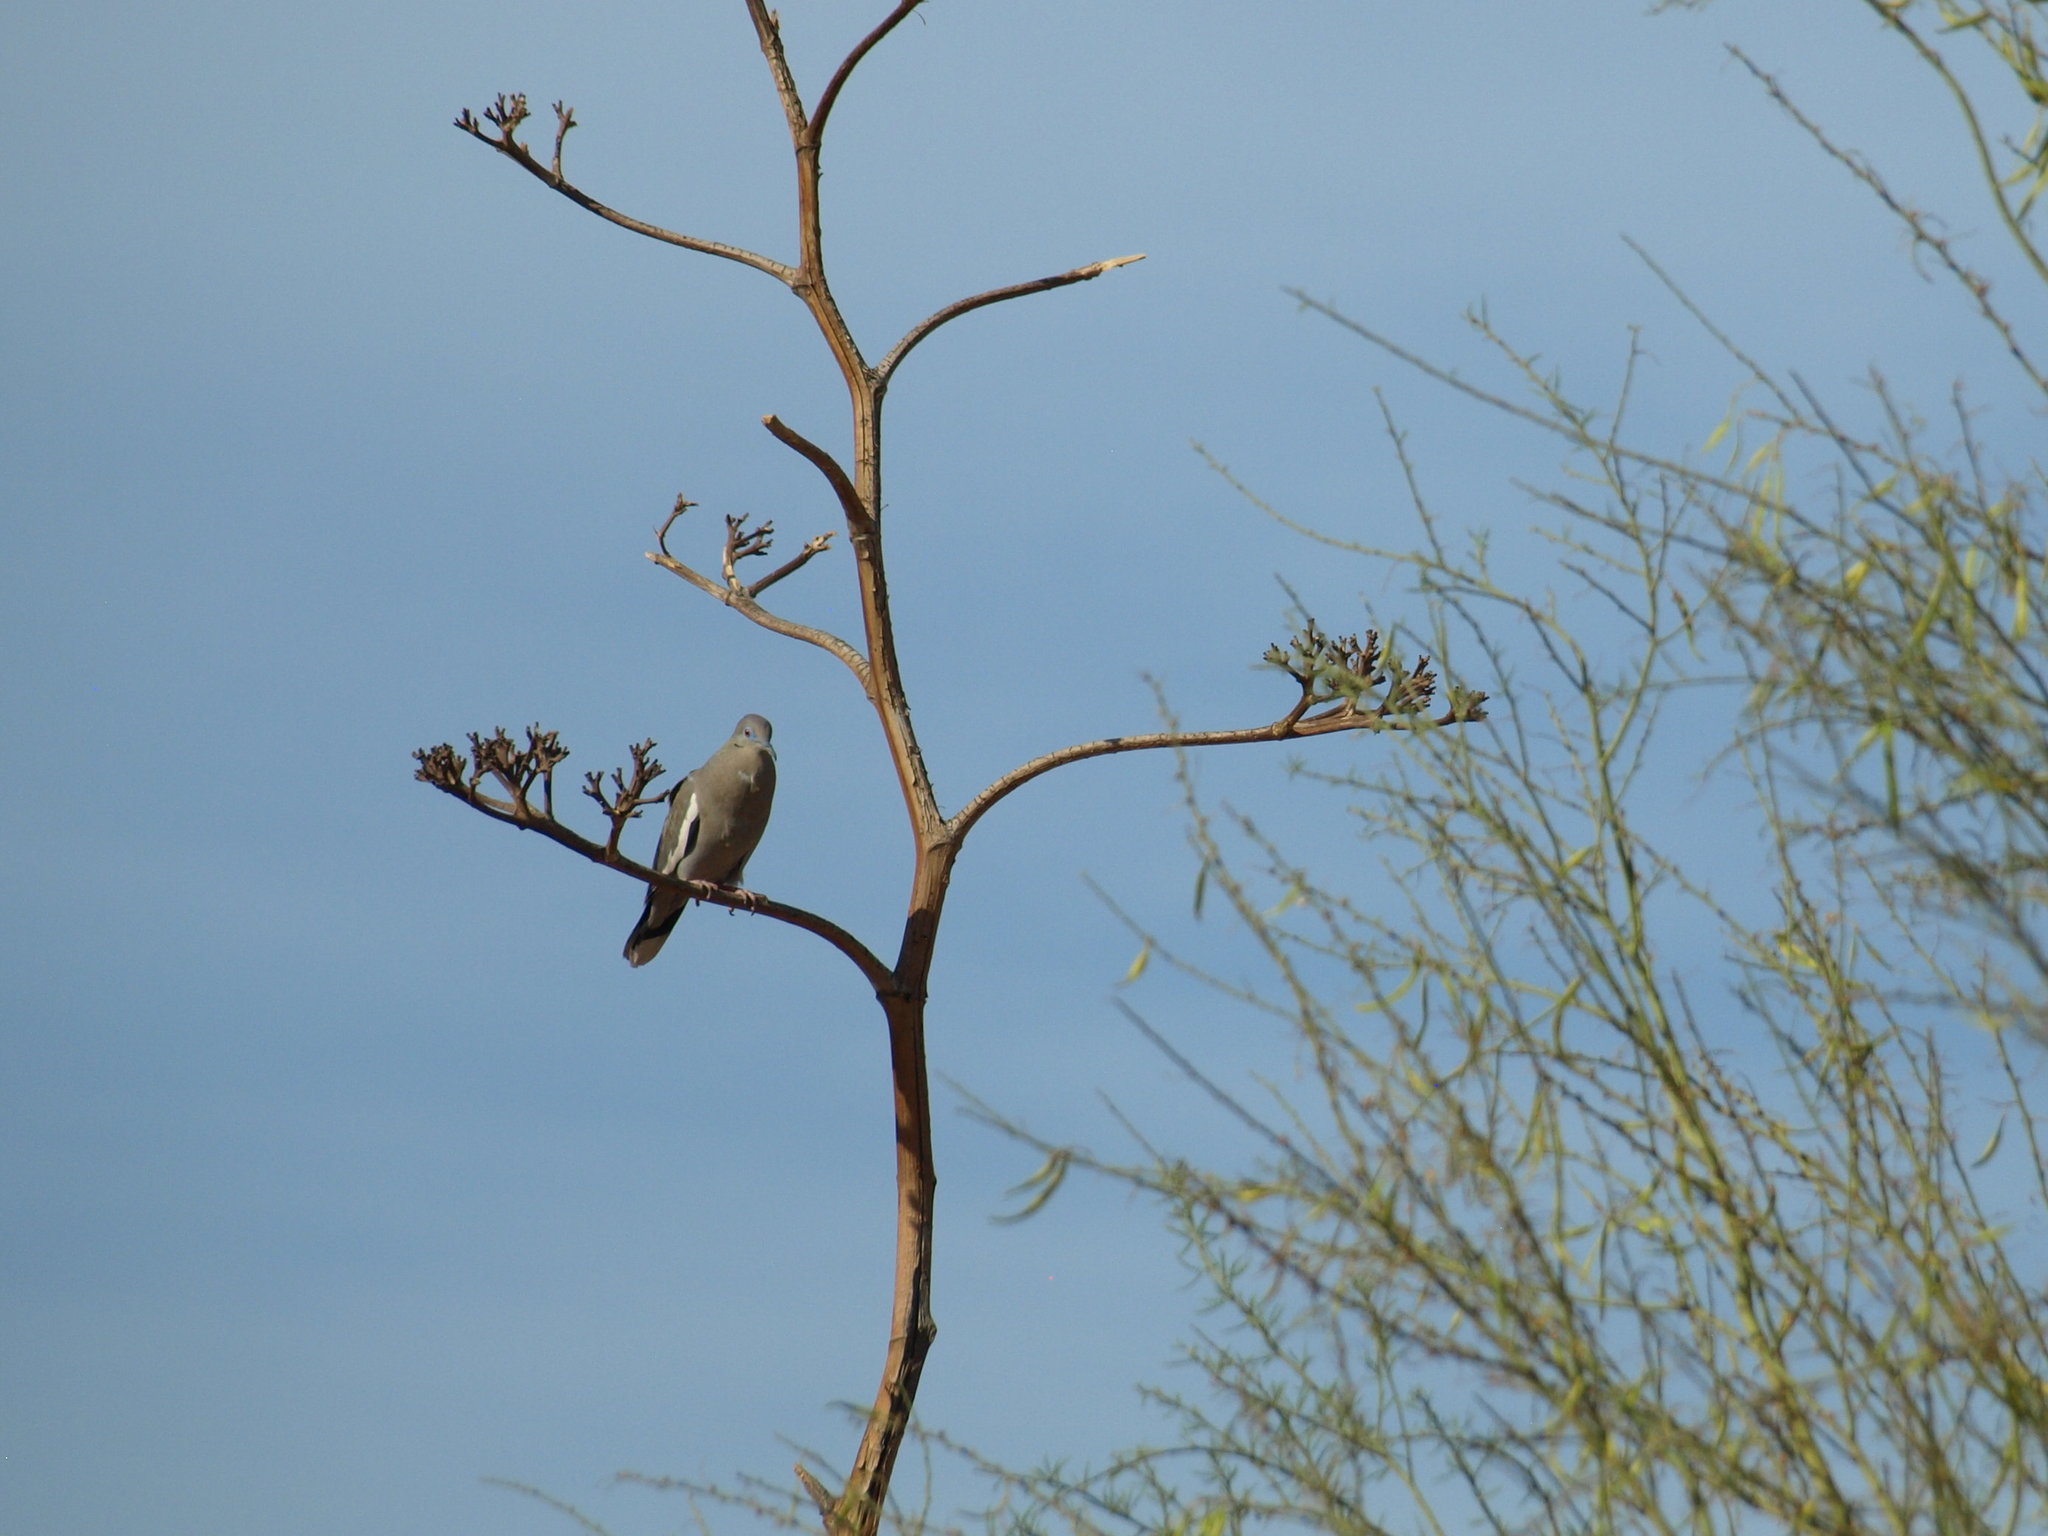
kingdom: Animalia
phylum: Chordata
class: Aves
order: Columbiformes
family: Columbidae
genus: Zenaida
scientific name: Zenaida asiatica
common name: White-winged dove
